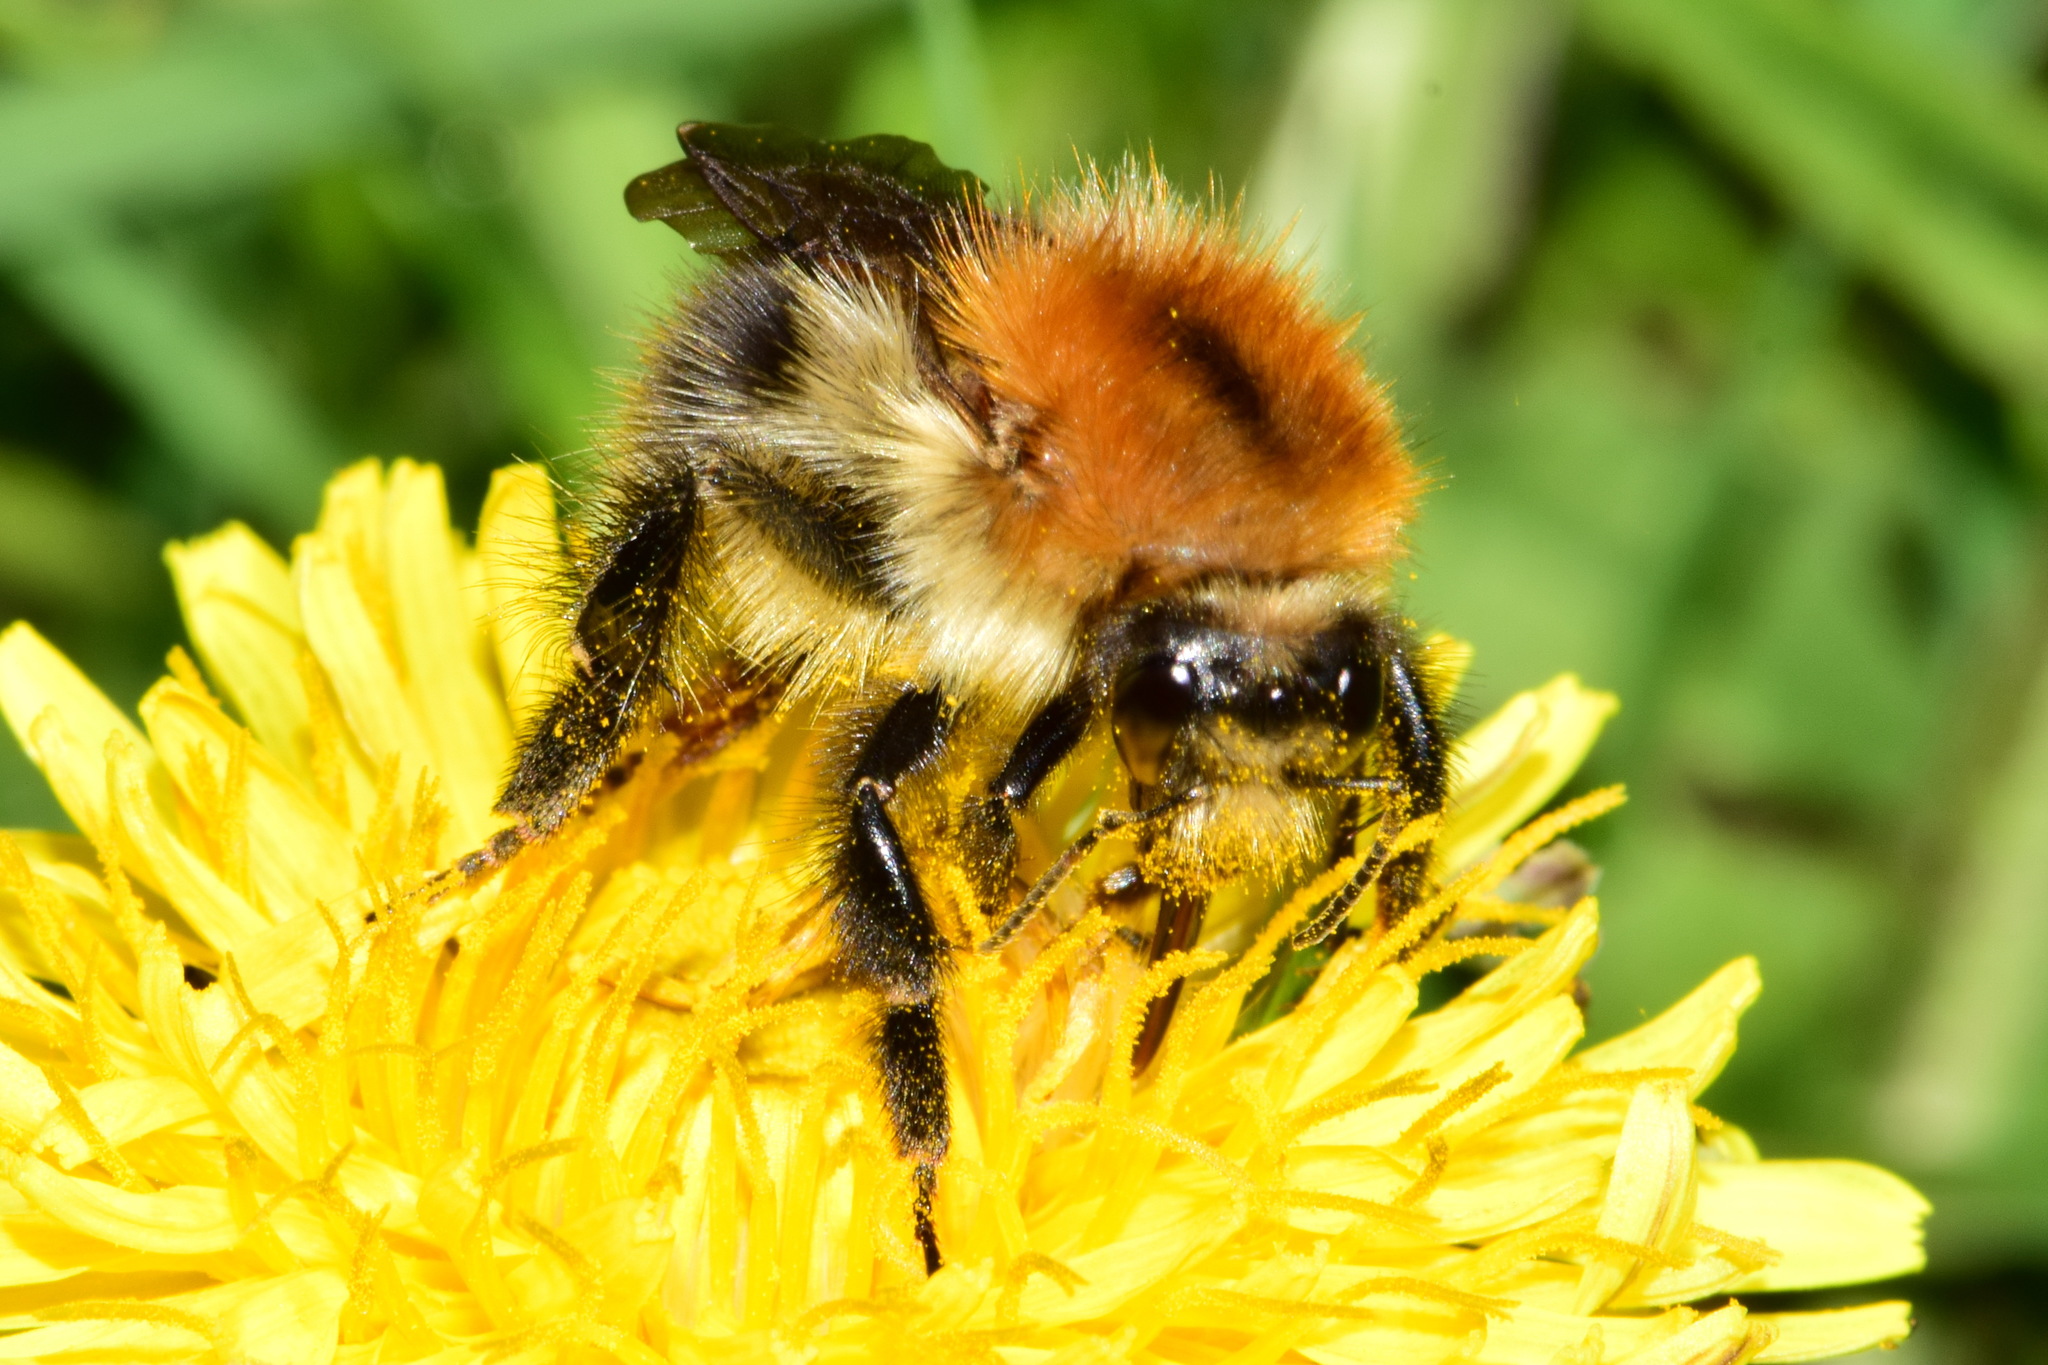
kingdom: Animalia
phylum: Arthropoda
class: Insecta
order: Hymenoptera
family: Apidae
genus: Bombus
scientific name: Bombus pascuorum
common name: Common carder bee
